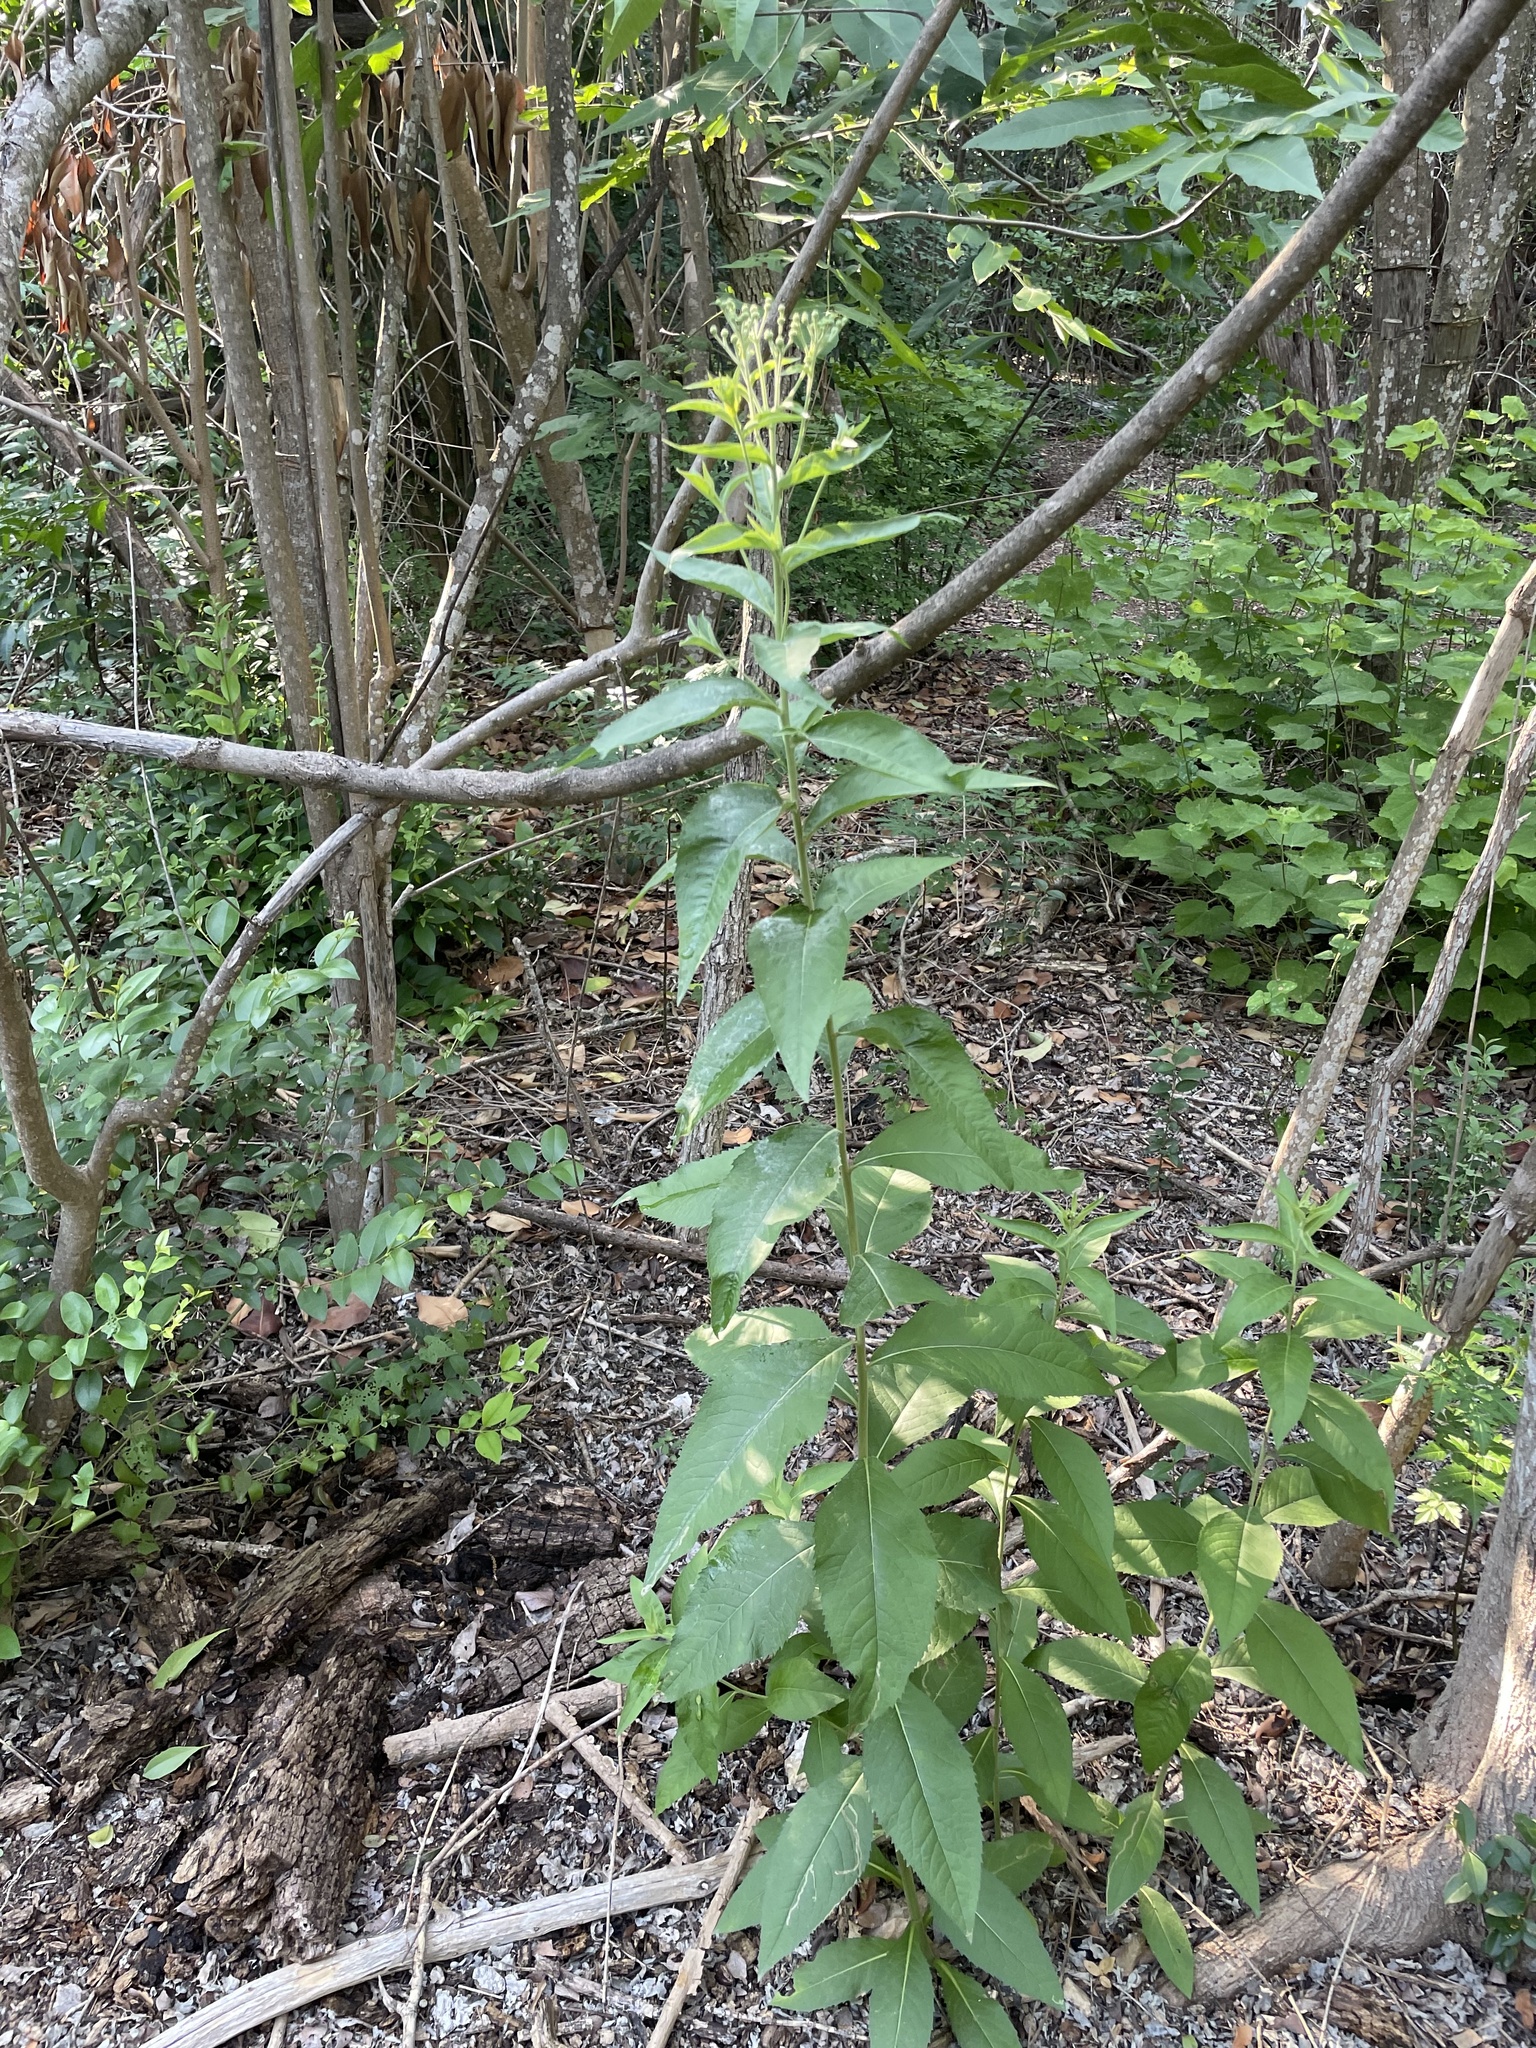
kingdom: Plantae
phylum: Tracheophyta
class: Magnoliopsida
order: Asterales
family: Asteraceae
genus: Verbesina
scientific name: Verbesina virginica
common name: Frostweed
